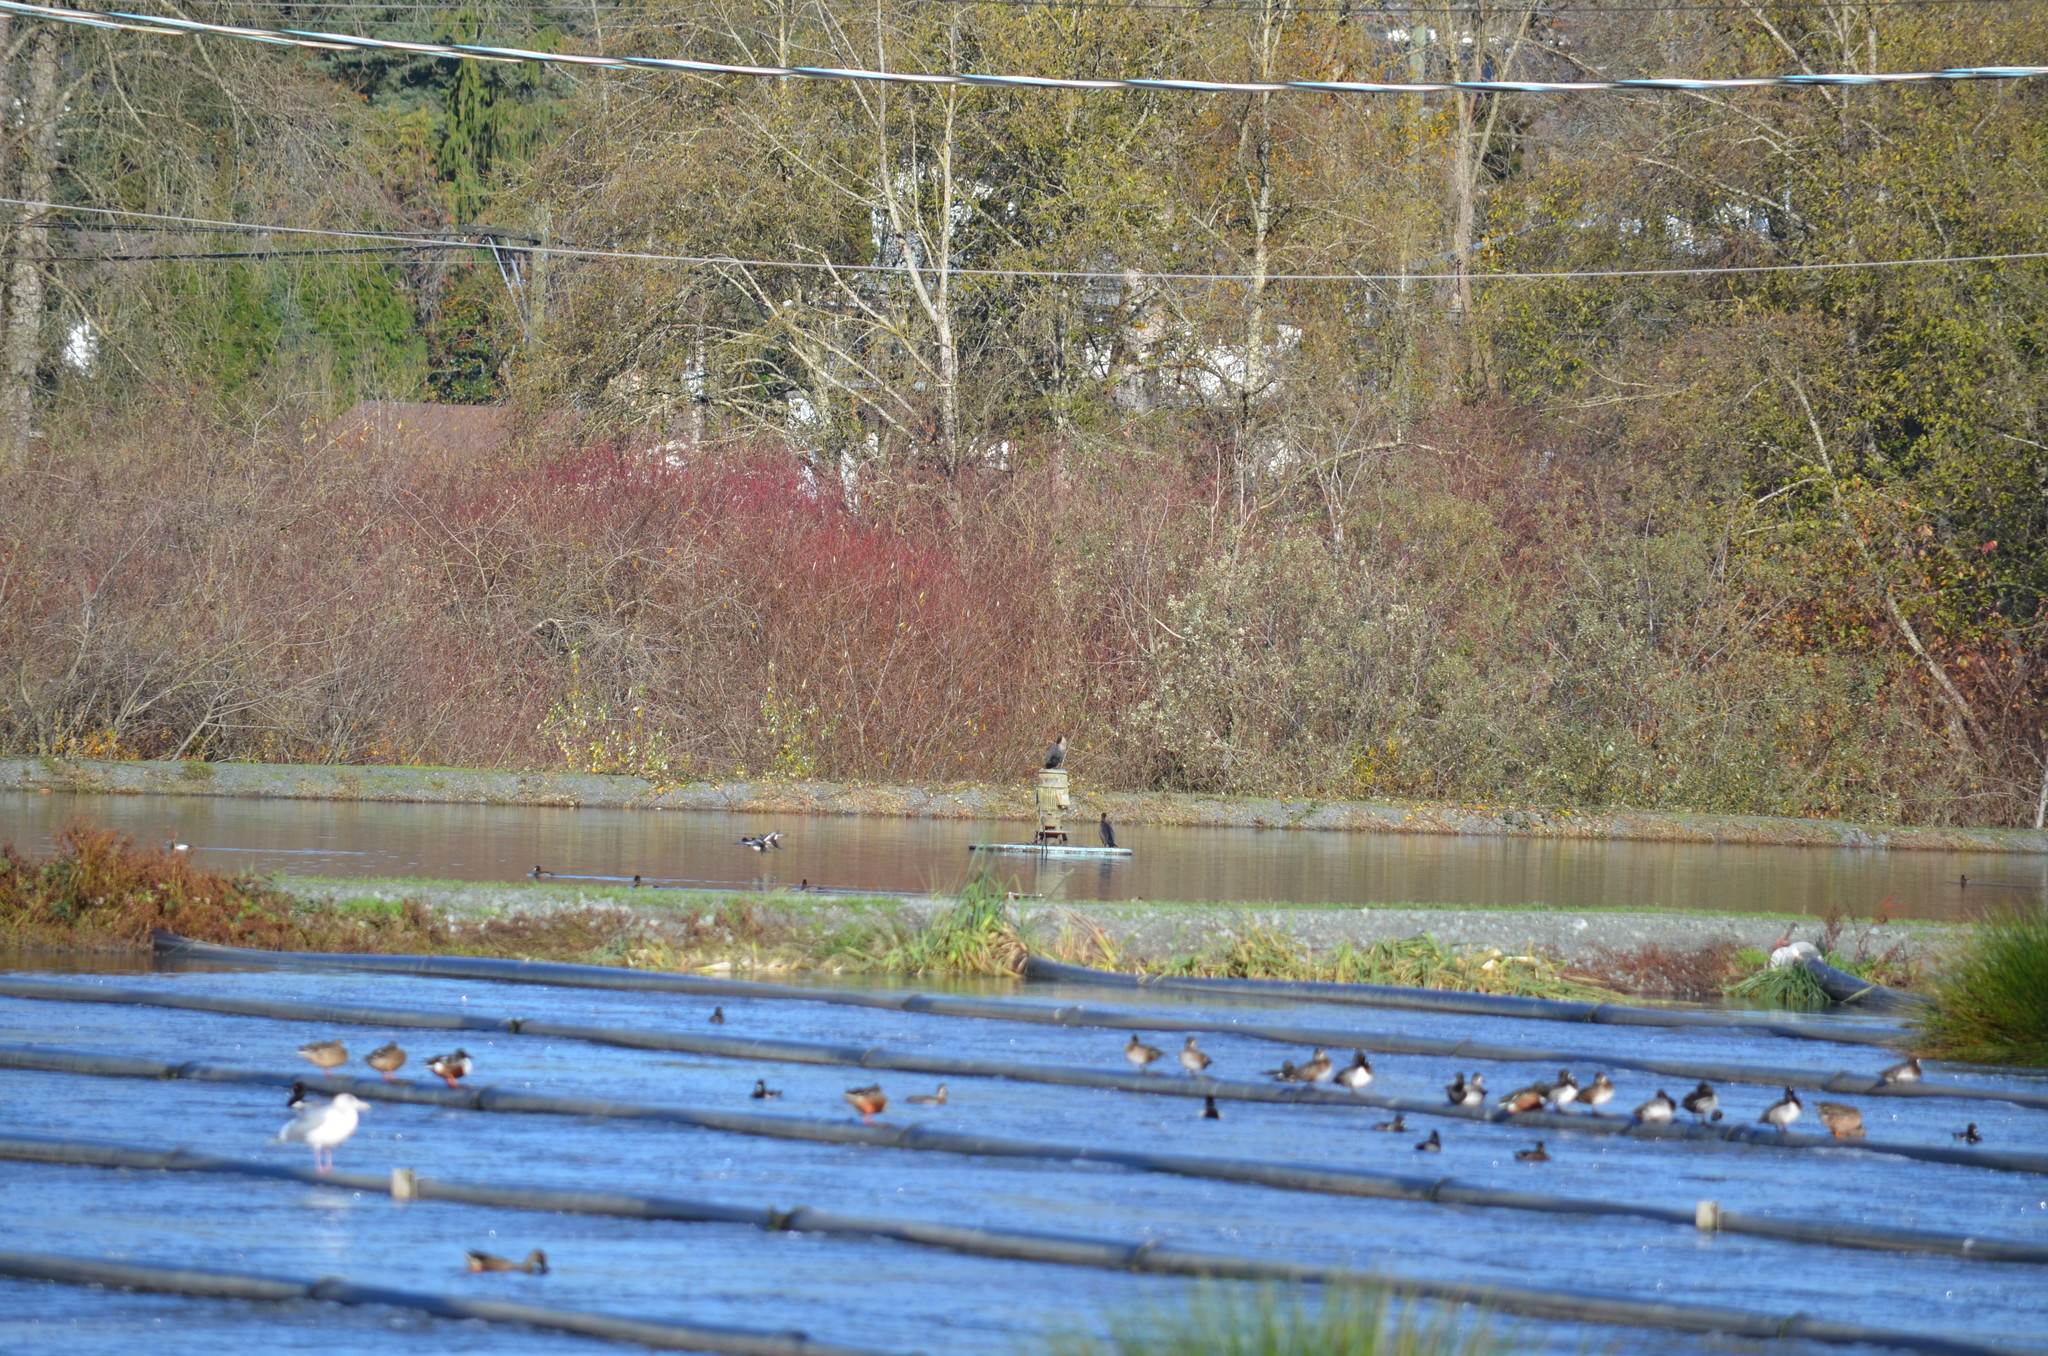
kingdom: Animalia
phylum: Chordata
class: Aves
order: Suliformes
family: Phalacrocoracidae
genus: Phalacrocorax
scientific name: Phalacrocorax auritus
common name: Double-crested cormorant
